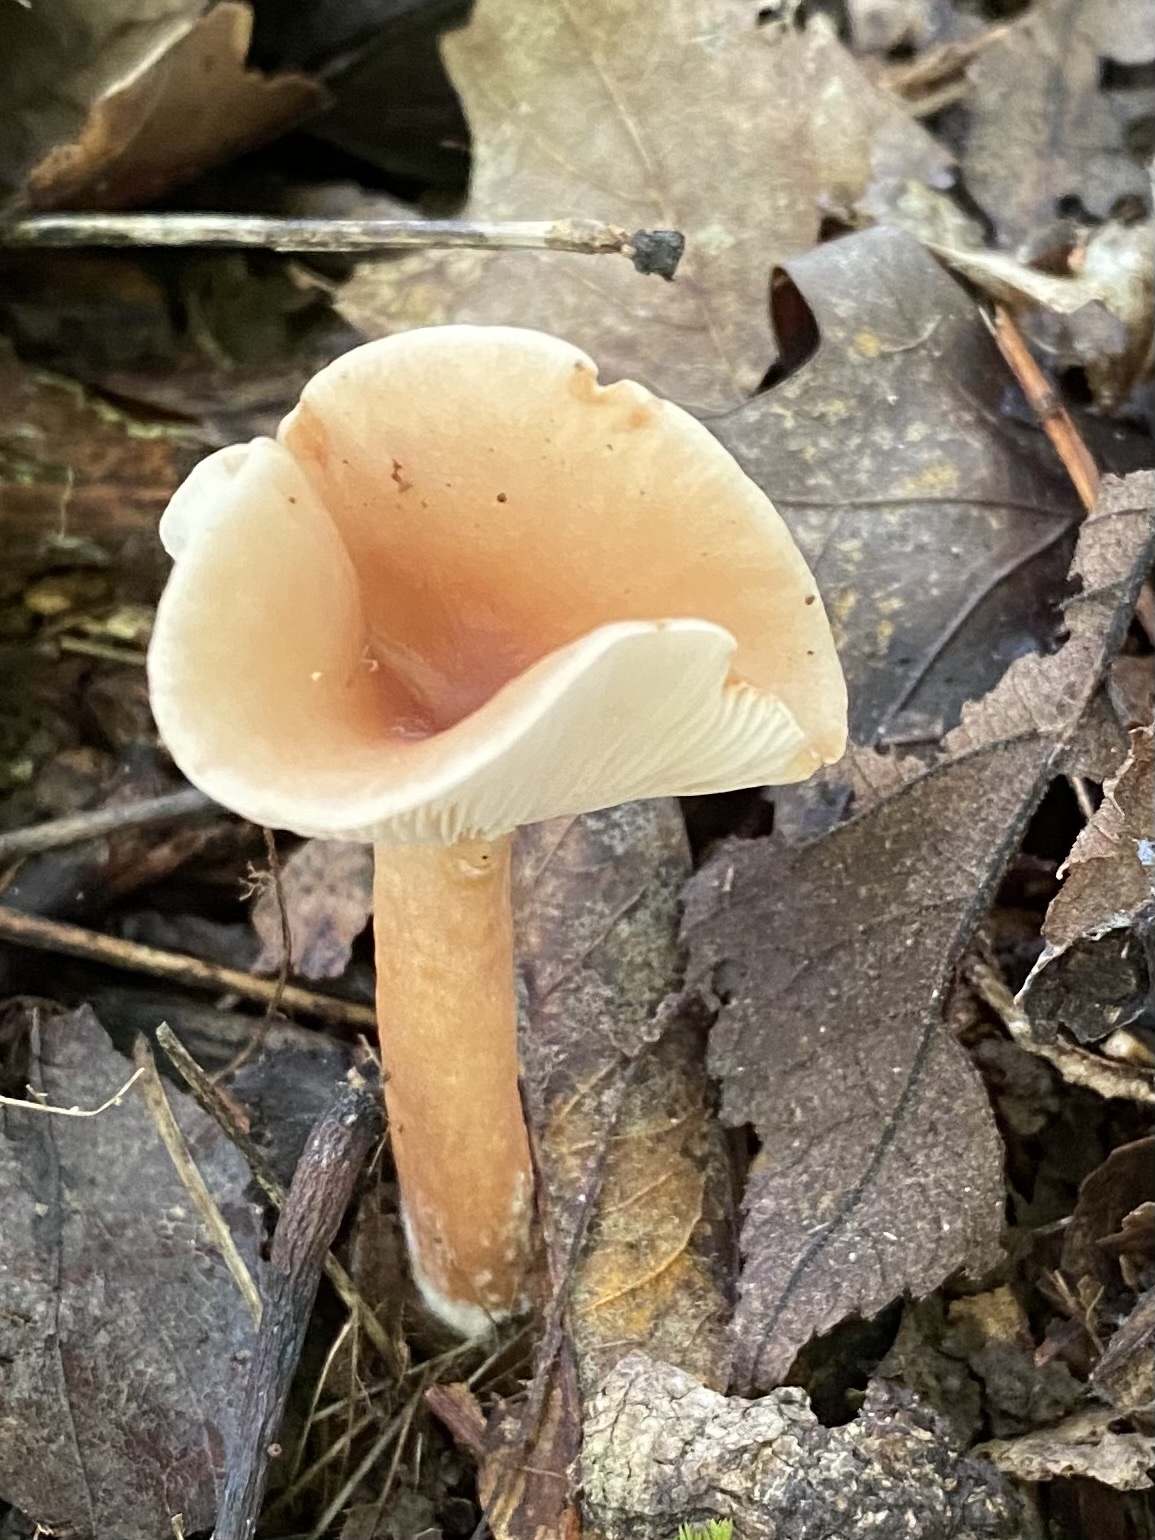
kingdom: Fungi
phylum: Basidiomycota
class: Agaricomycetes
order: Russulales
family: Russulaceae
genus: Lactarius
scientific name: Lactarius hygrophoroides
